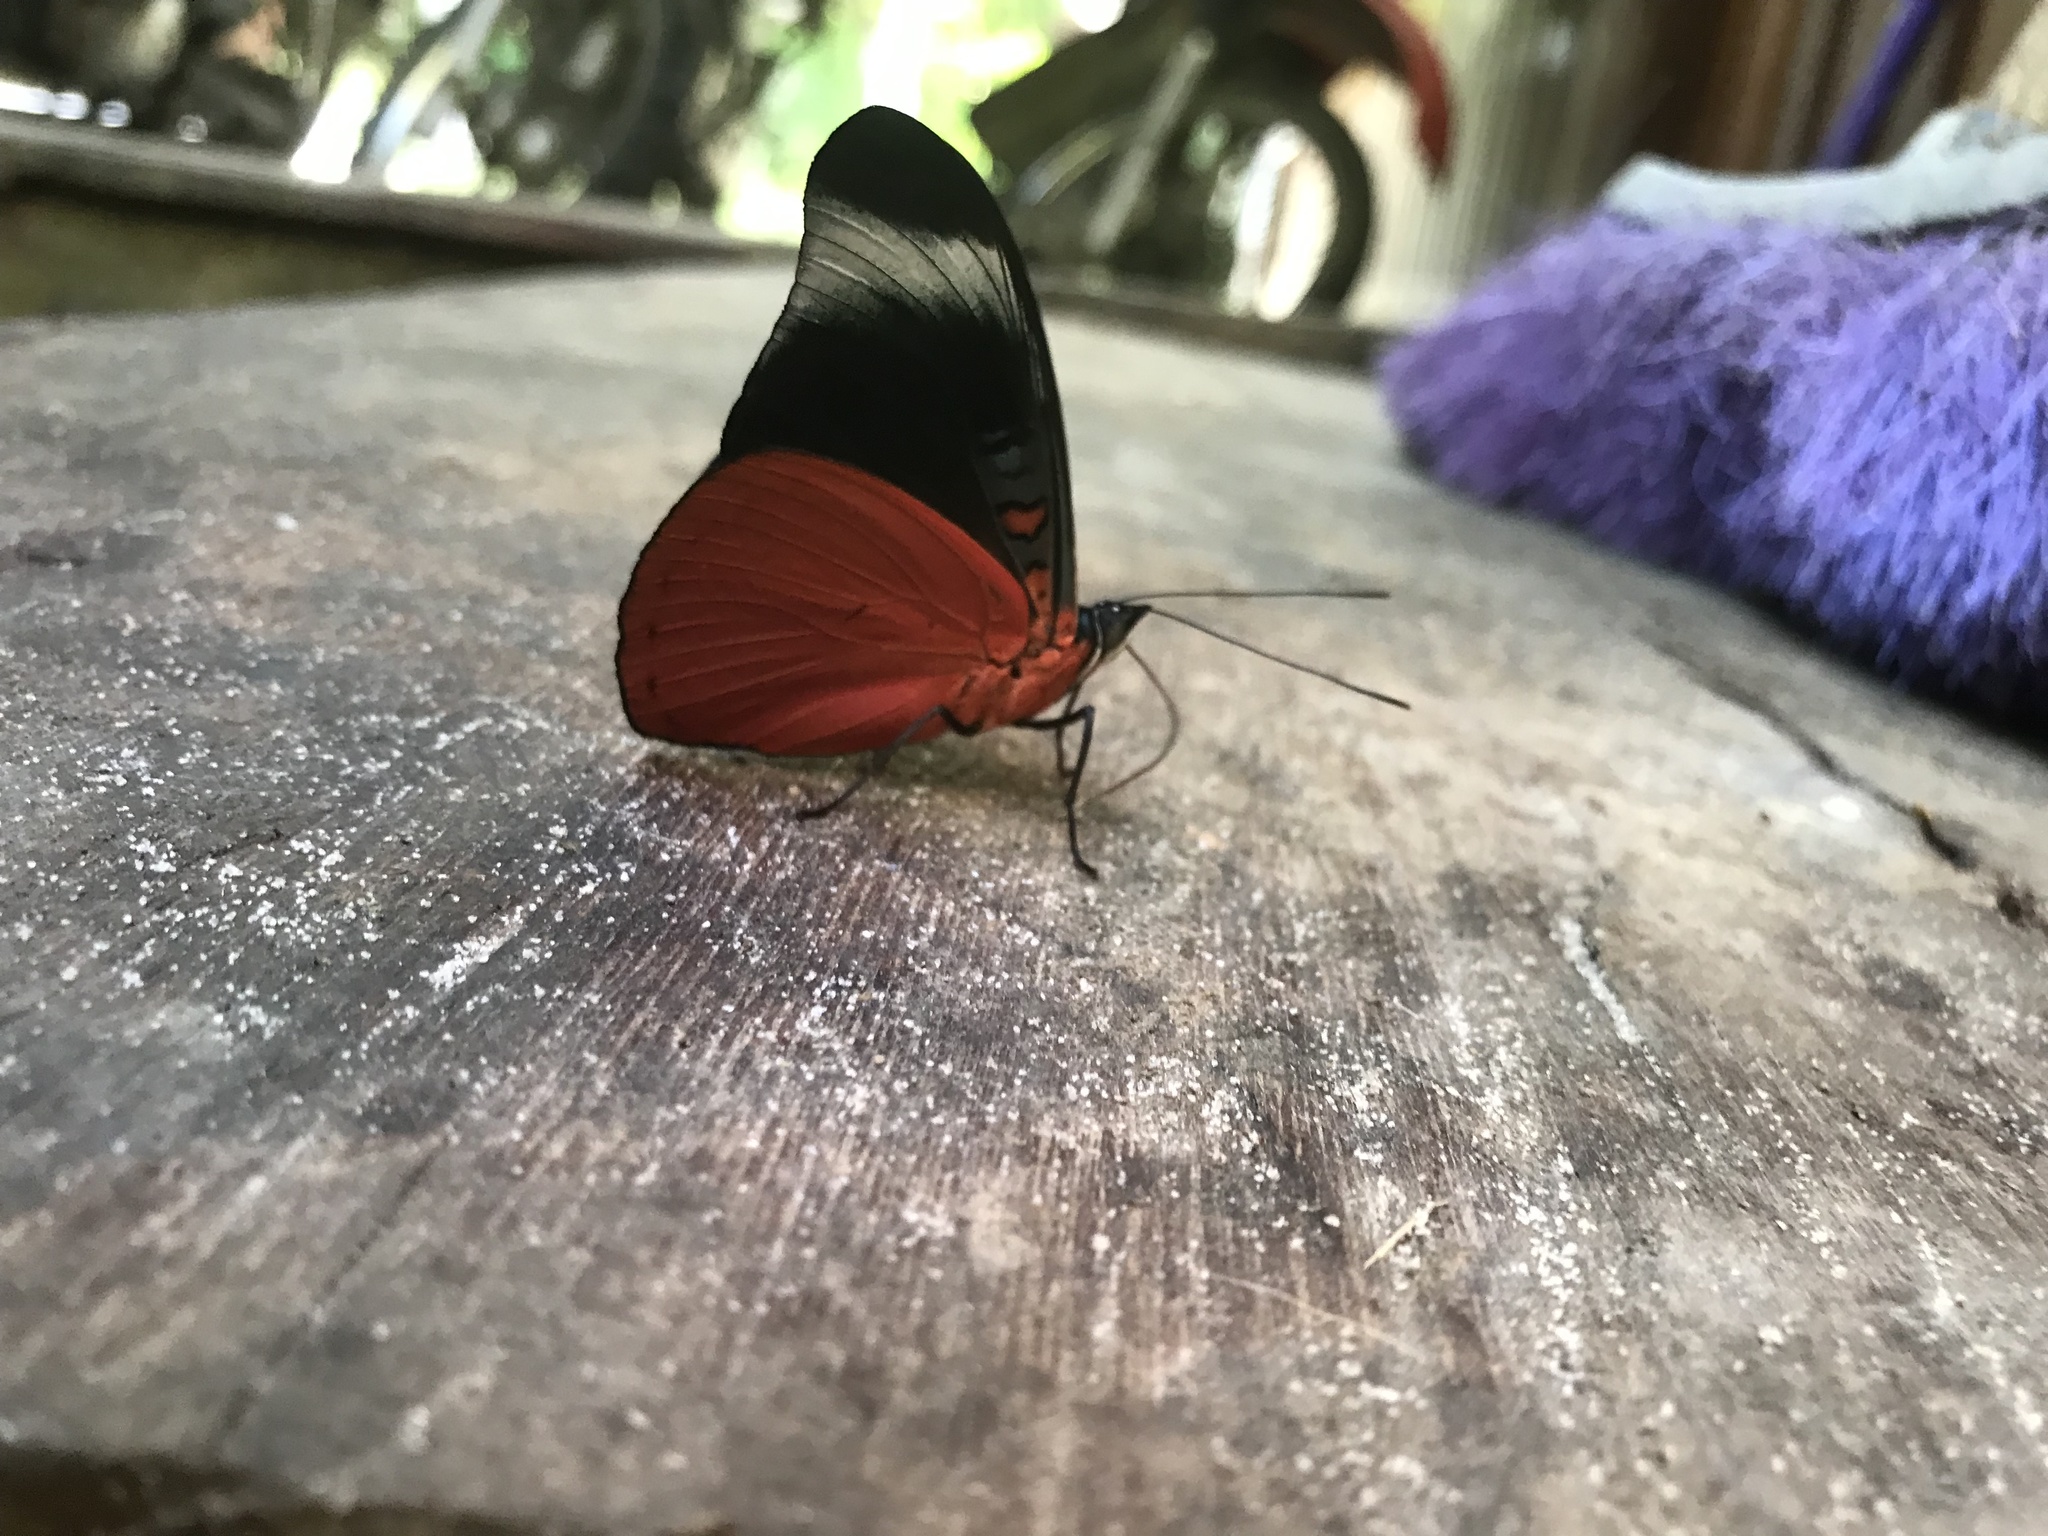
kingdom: Animalia
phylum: Arthropoda
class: Insecta
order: Lepidoptera
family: Nymphalidae
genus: Panacea
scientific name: Panacea prola
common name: Red flasher
